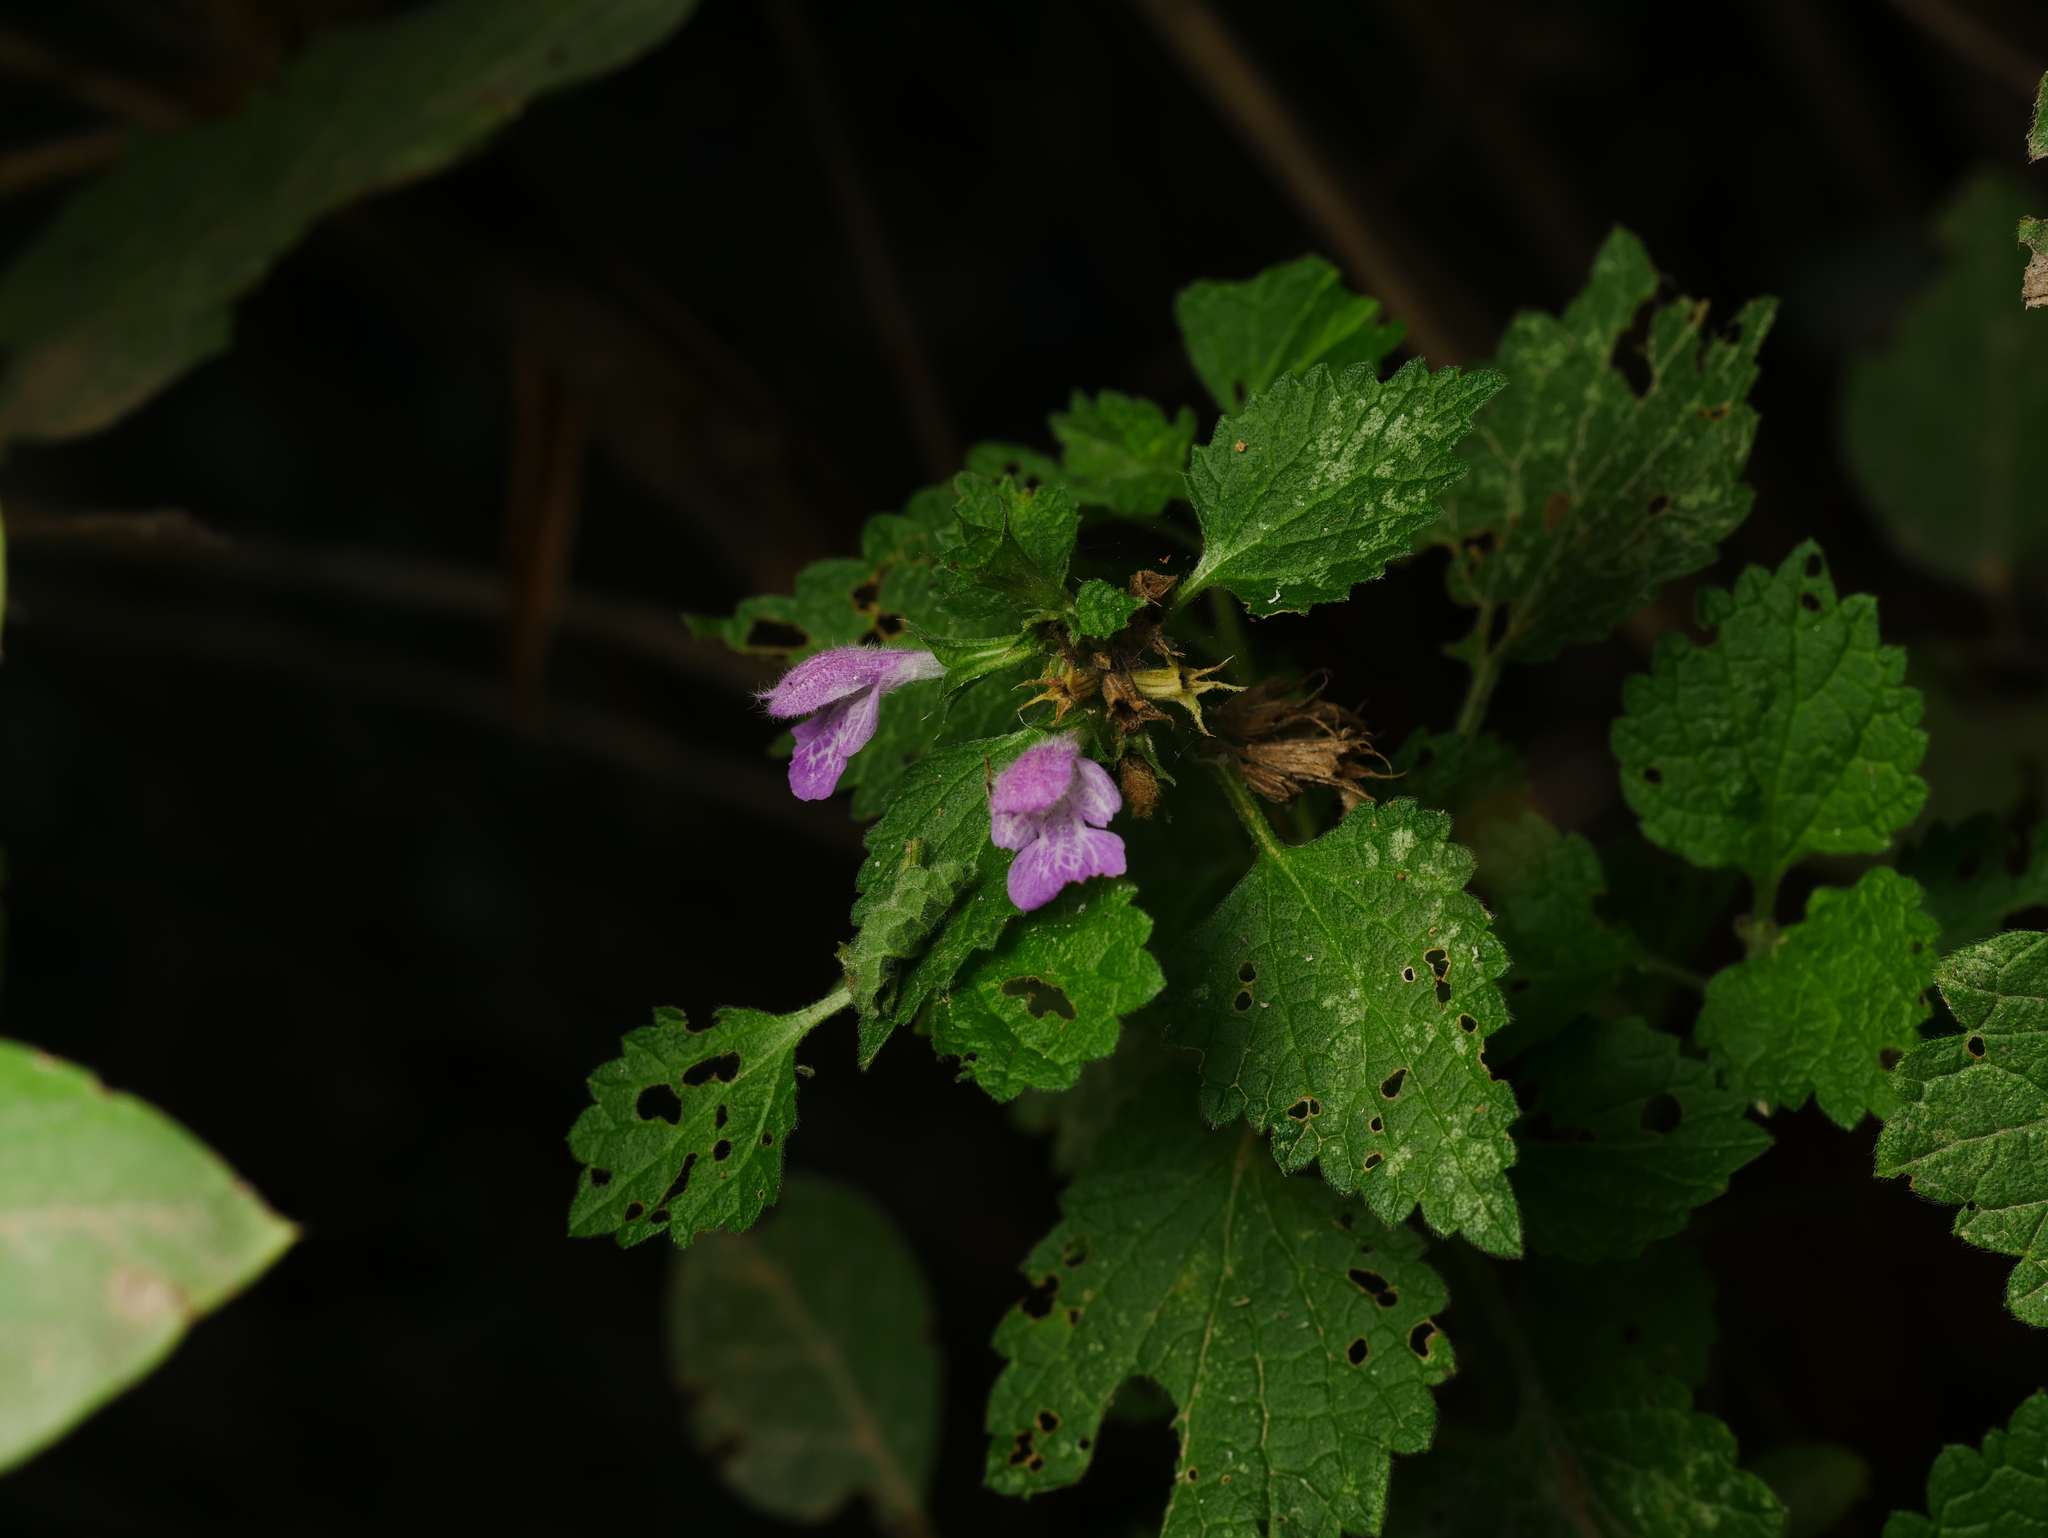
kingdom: Plantae
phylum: Tracheophyta
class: Magnoliopsida
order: Lamiales
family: Lamiaceae
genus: Ballota
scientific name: Ballota nigra
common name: Black horehound
